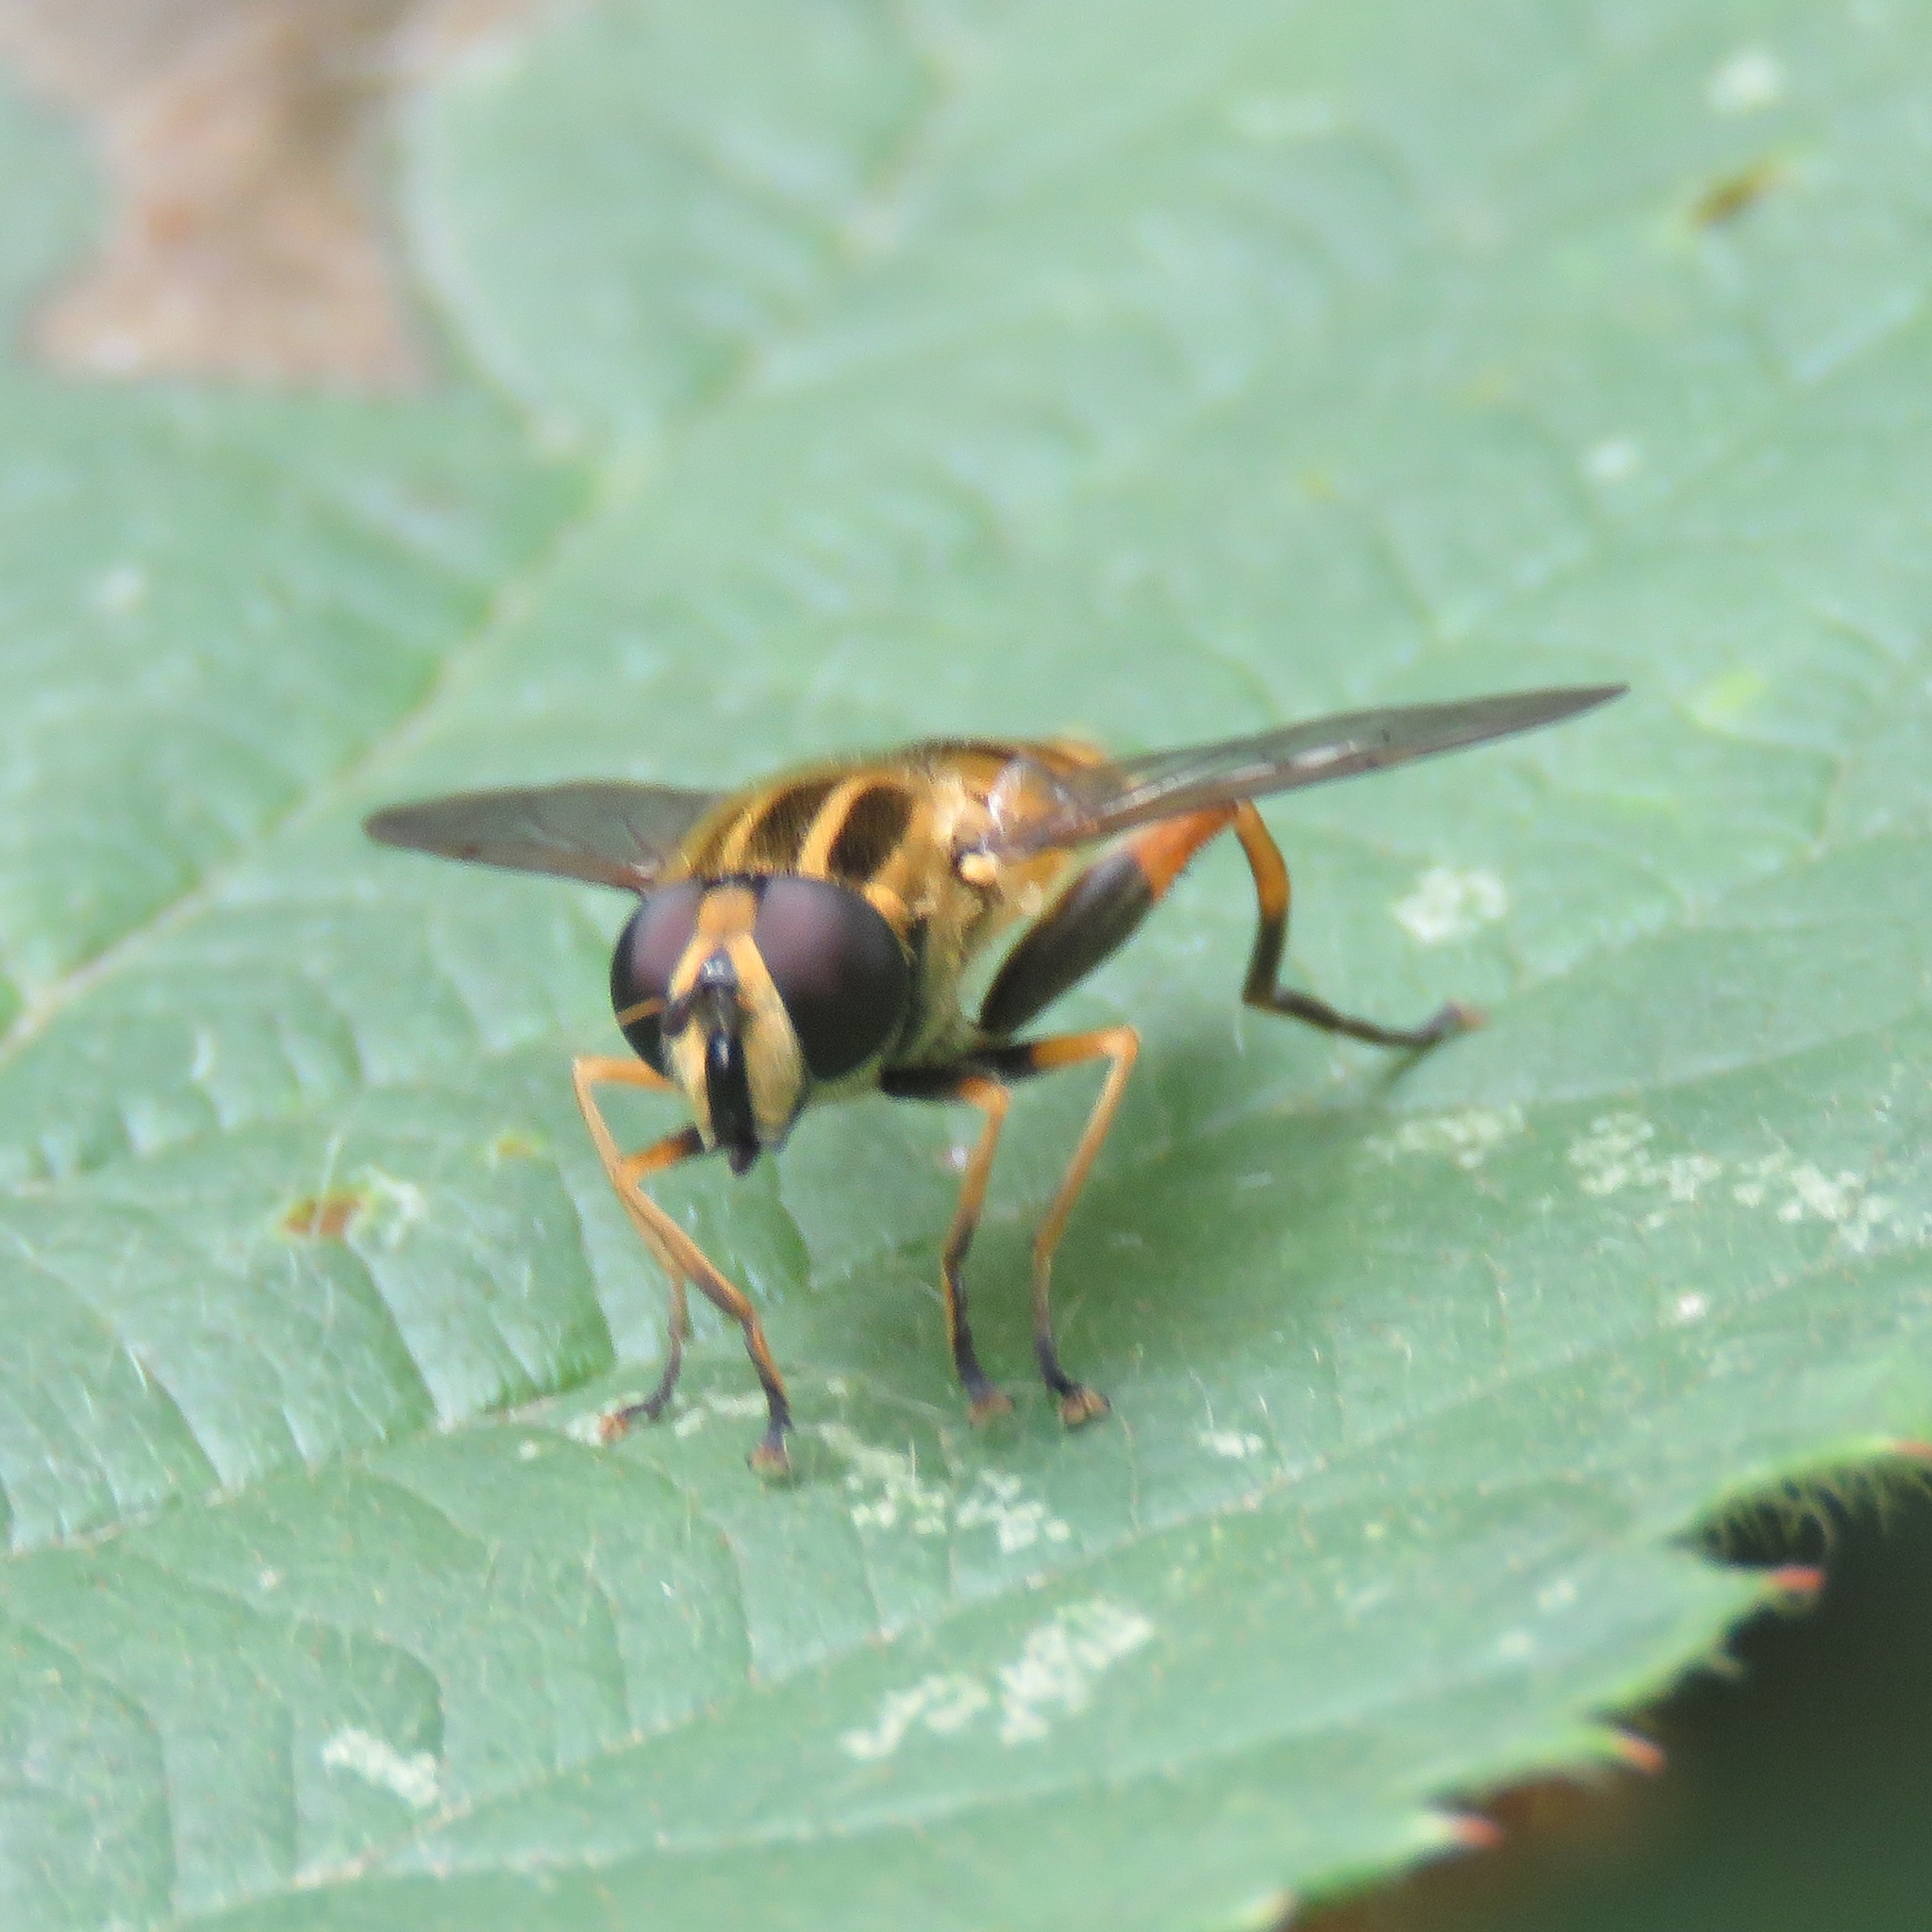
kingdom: Animalia
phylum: Arthropoda
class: Insecta
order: Diptera
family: Syrphidae
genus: Helophilus
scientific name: Helophilus pendulus
